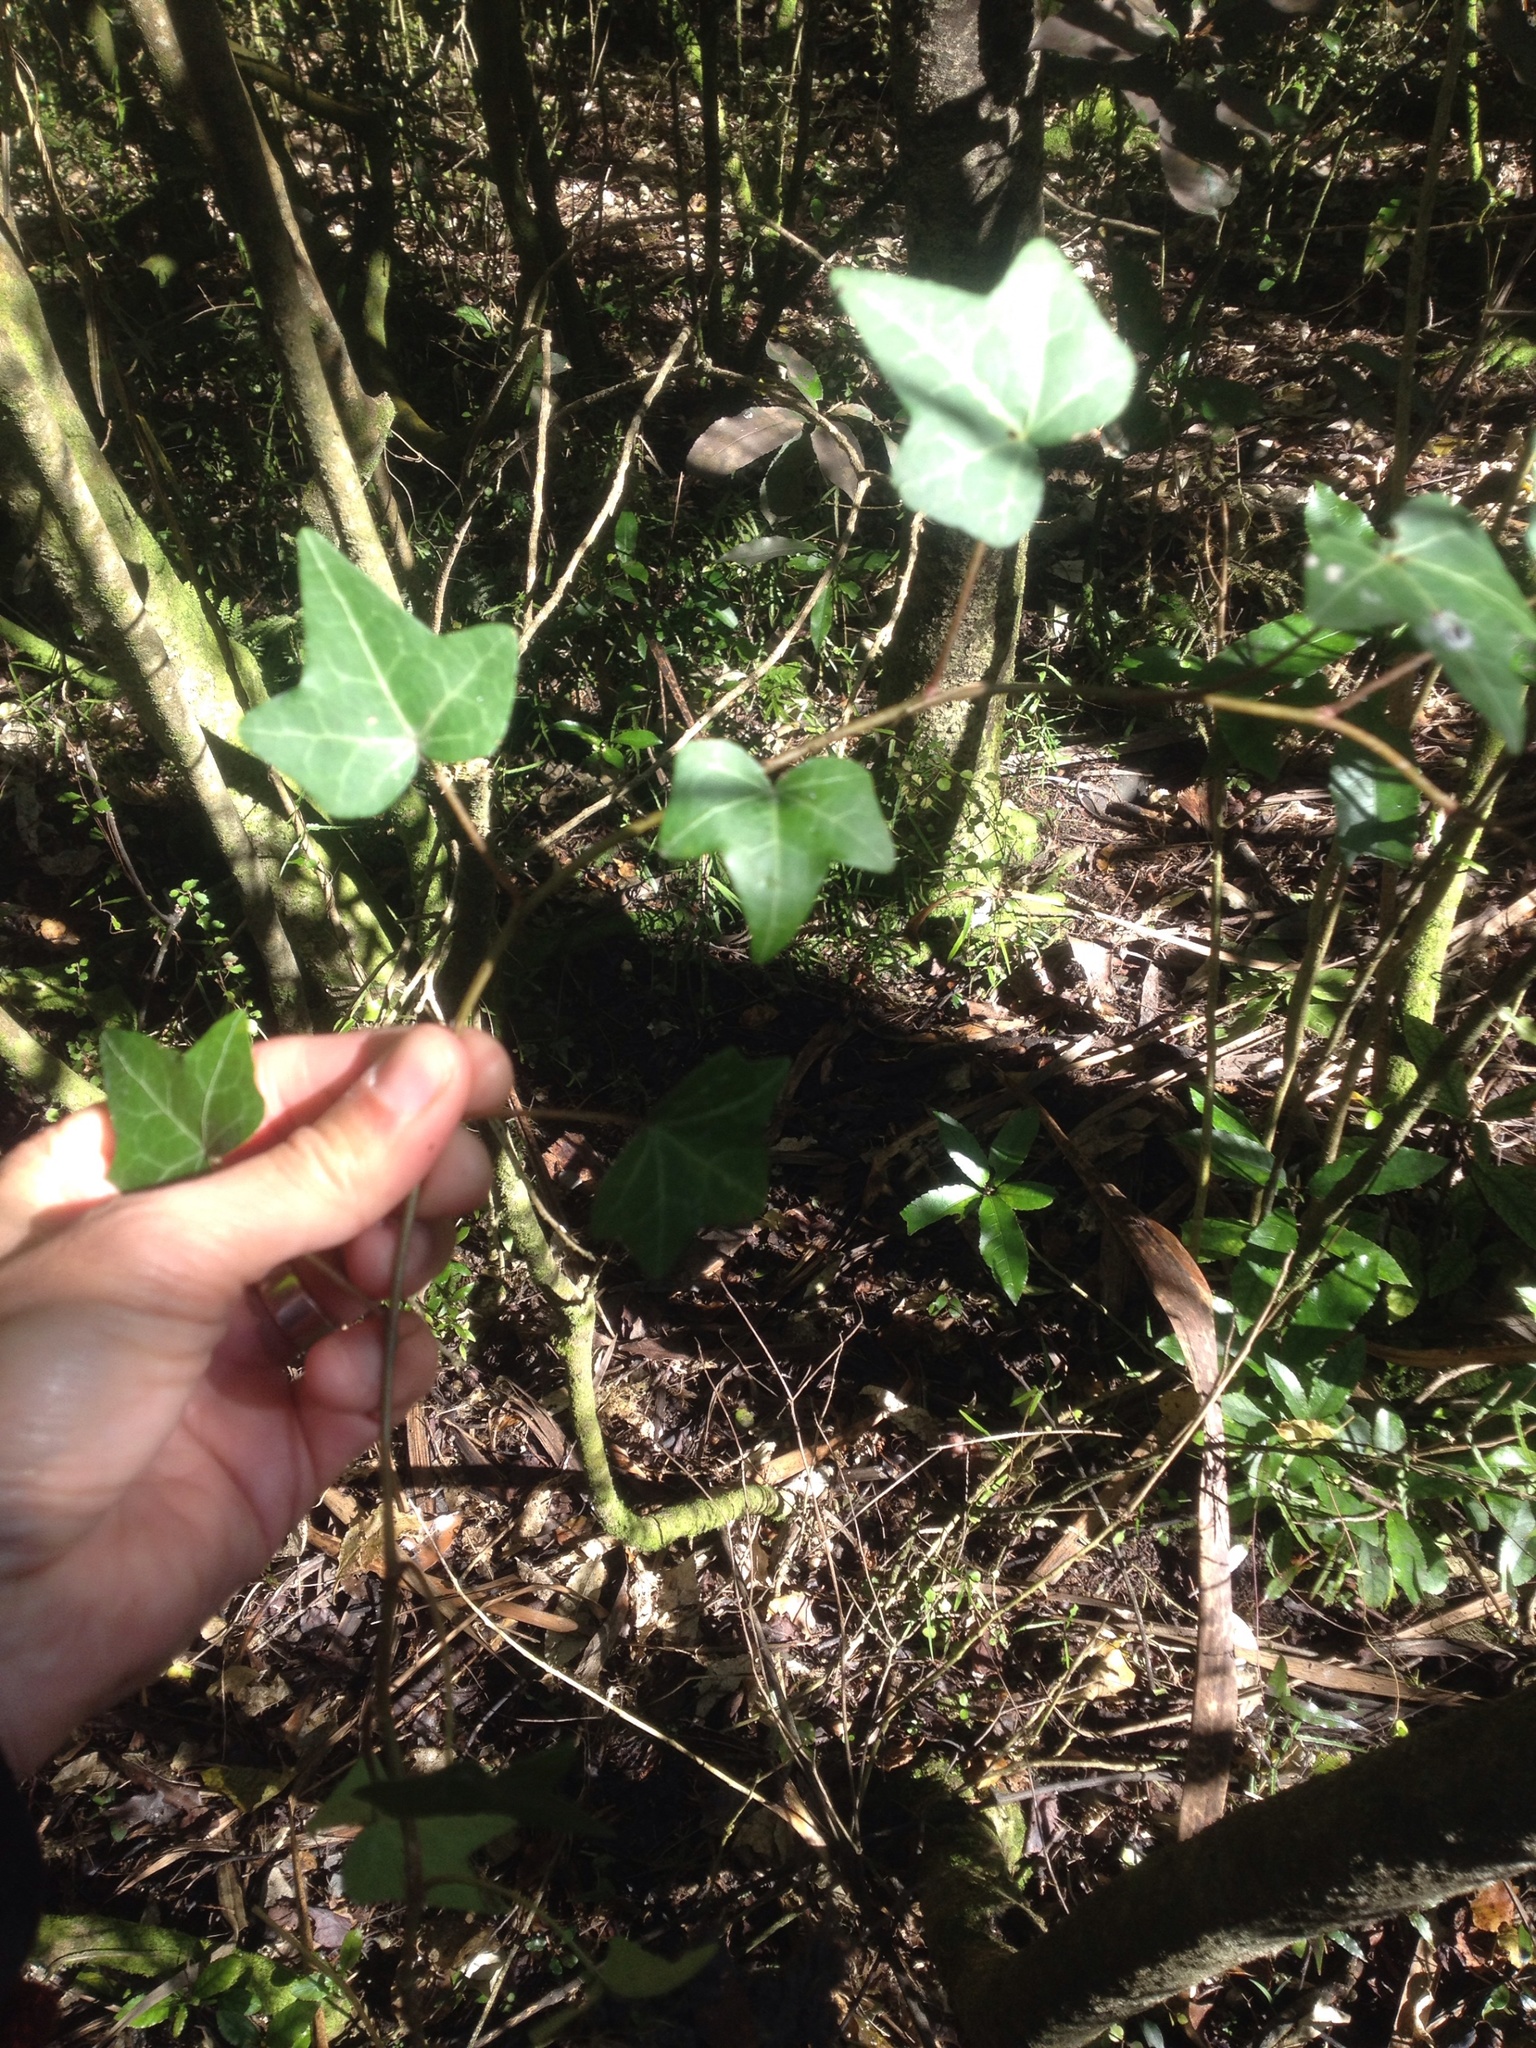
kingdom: Plantae
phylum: Tracheophyta
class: Magnoliopsida
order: Apiales
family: Araliaceae
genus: Hedera
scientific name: Hedera helix
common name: Ivy
